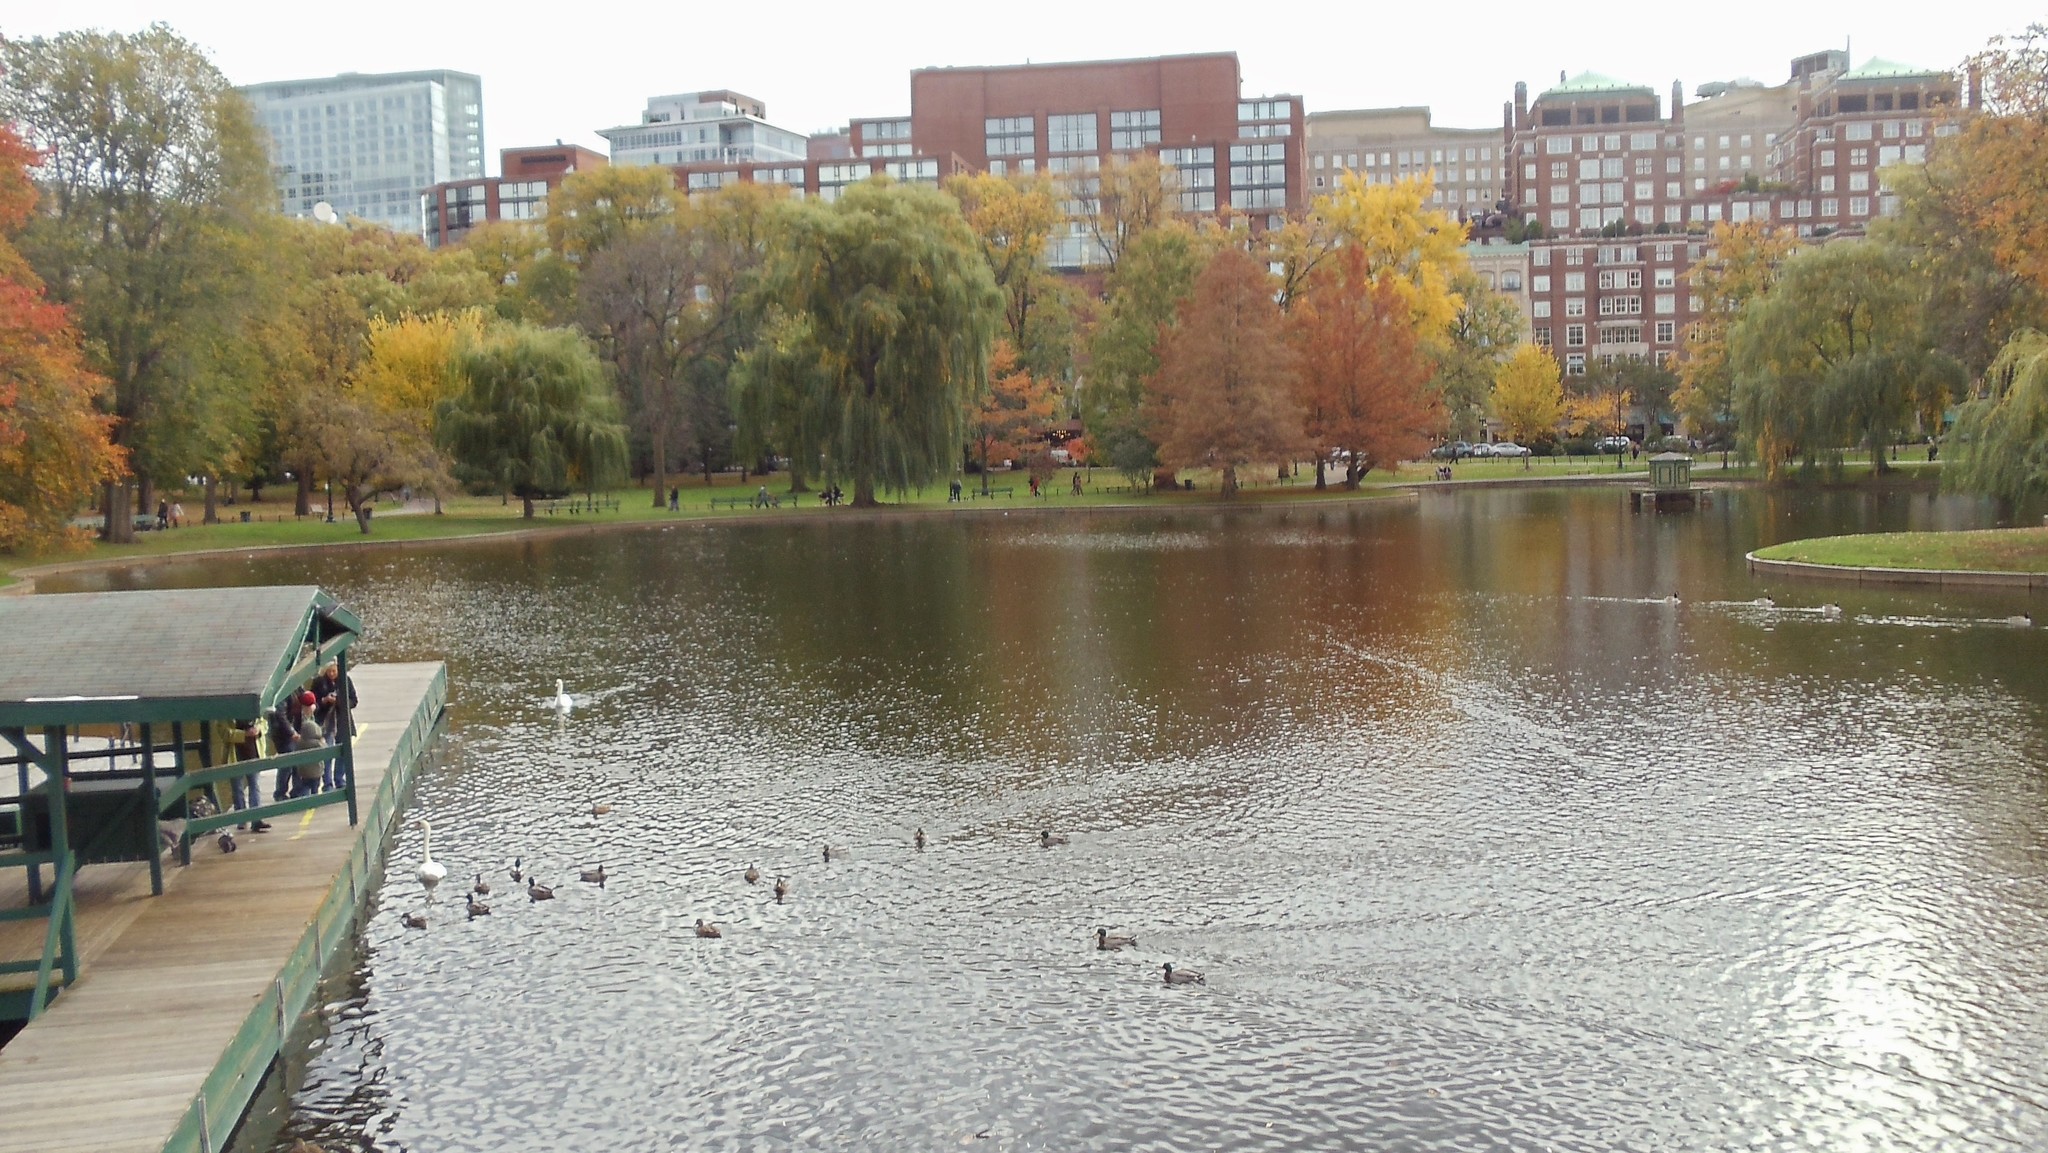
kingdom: Animalia
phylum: Chordata
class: Aves
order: Anseriformes
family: Anatidae
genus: Anas
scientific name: Anas platyrhynchos
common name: Mallard
